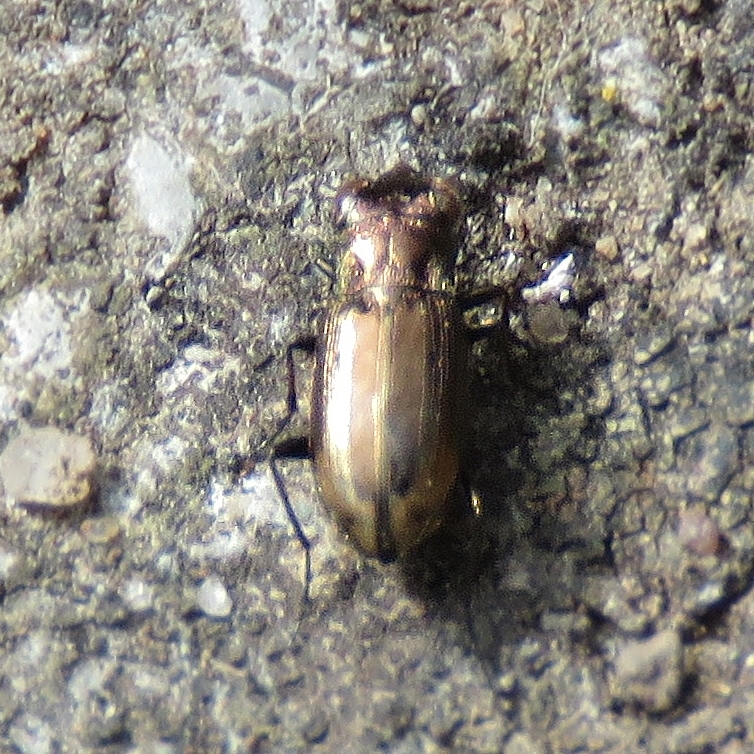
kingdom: Animalia
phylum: Arthropoda
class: Insecta
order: Coleoptera
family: Carabidae
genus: Notiophilus
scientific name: Notiophilus biguttatus
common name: Spotted gazelle beetle
